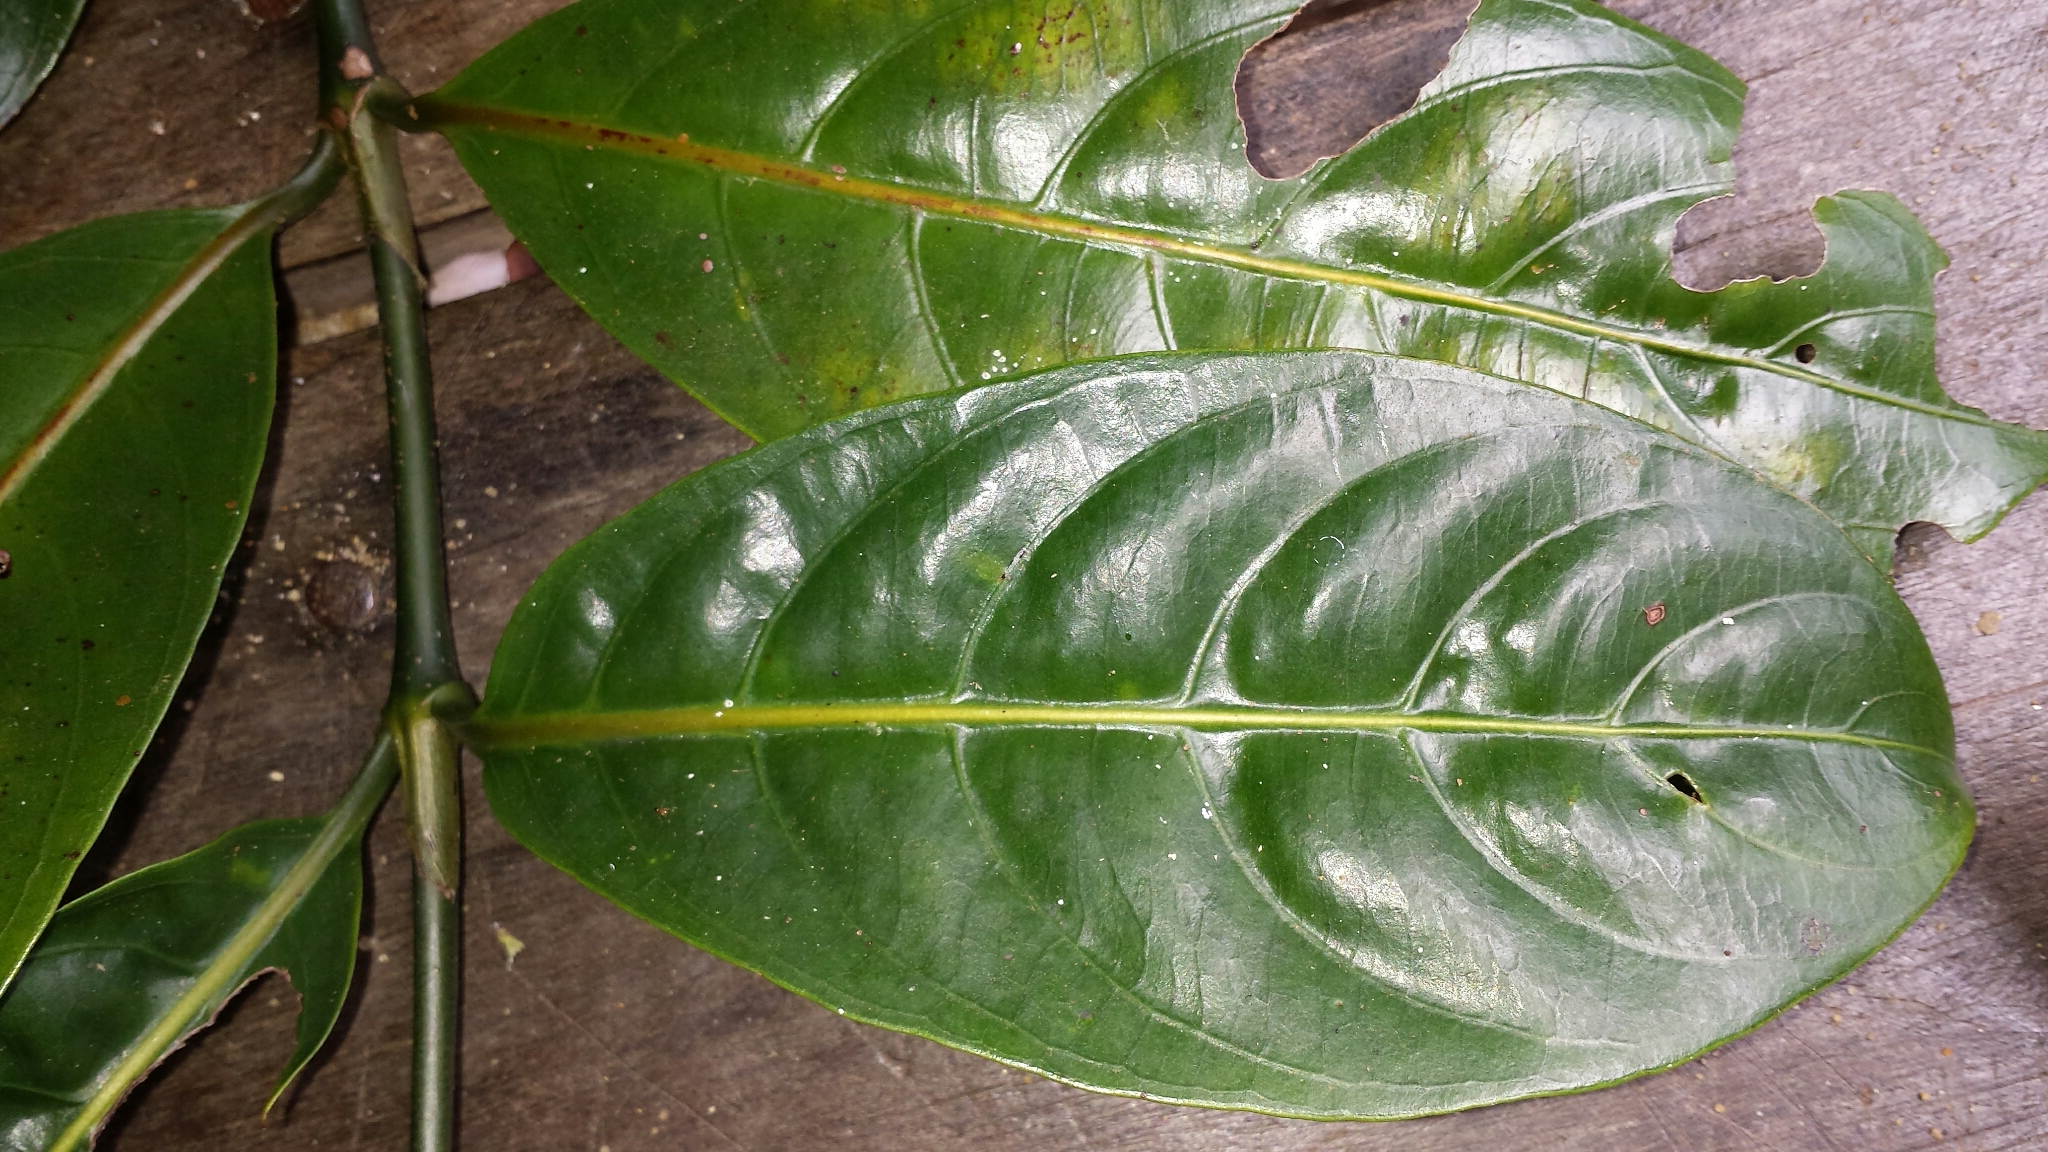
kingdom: Plantae
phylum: Tracheophyta
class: Magnoliopsida
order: Gentianales
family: Rubiaceae
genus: Gaertnera
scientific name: Gaertnera arenaria
